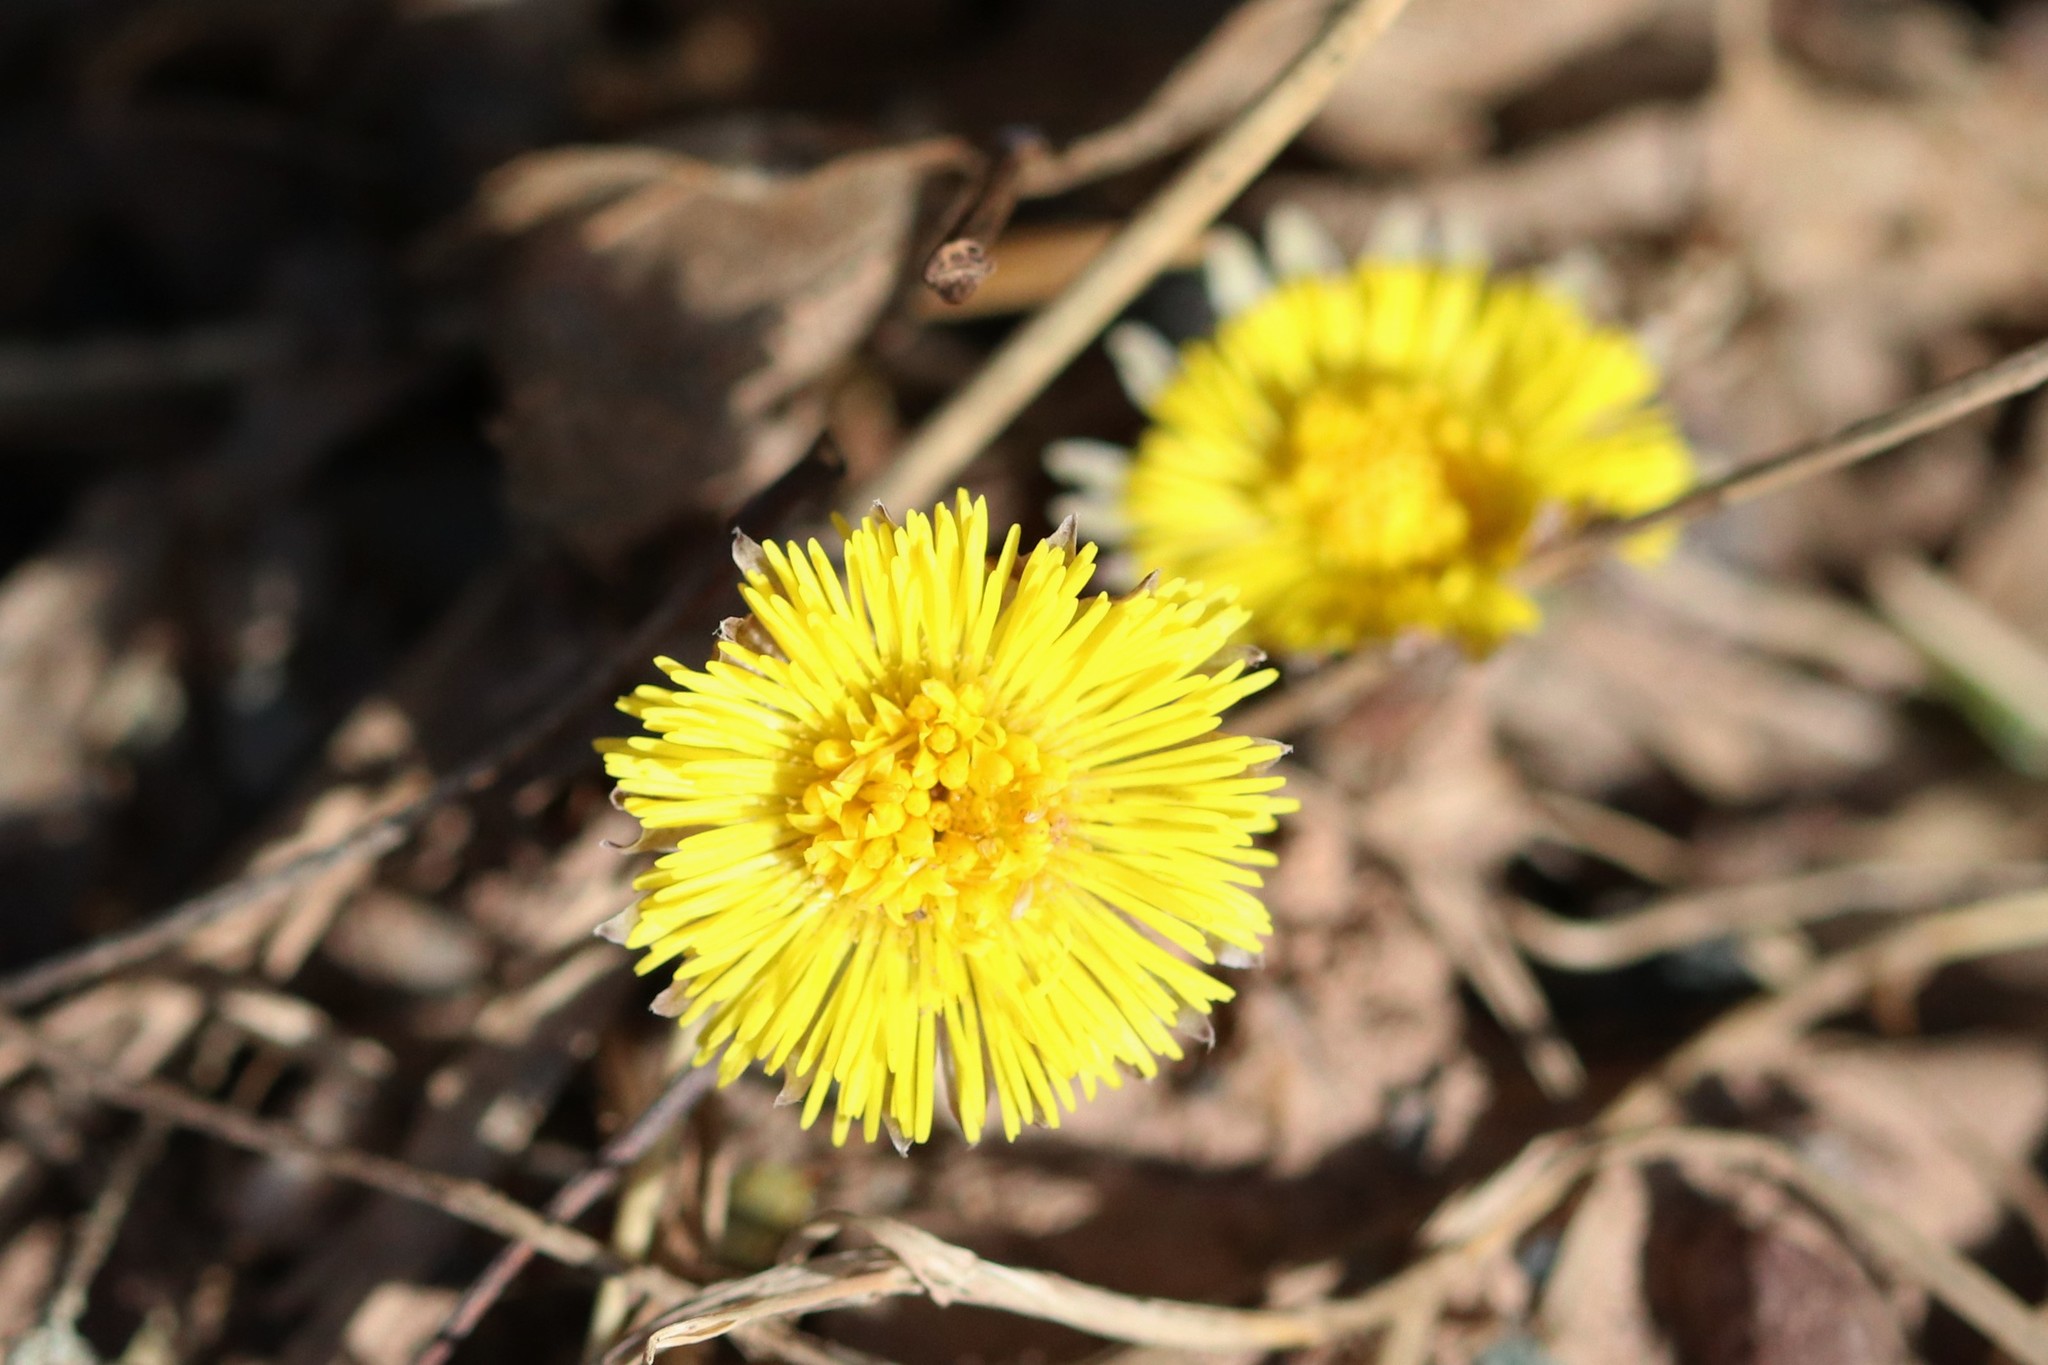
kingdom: Plantae
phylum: Tracheophyta
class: Magnoliopsida
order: Asterales
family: Asteraceae
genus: Tussilago
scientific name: Tussilago farfara
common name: Coltsfoot
